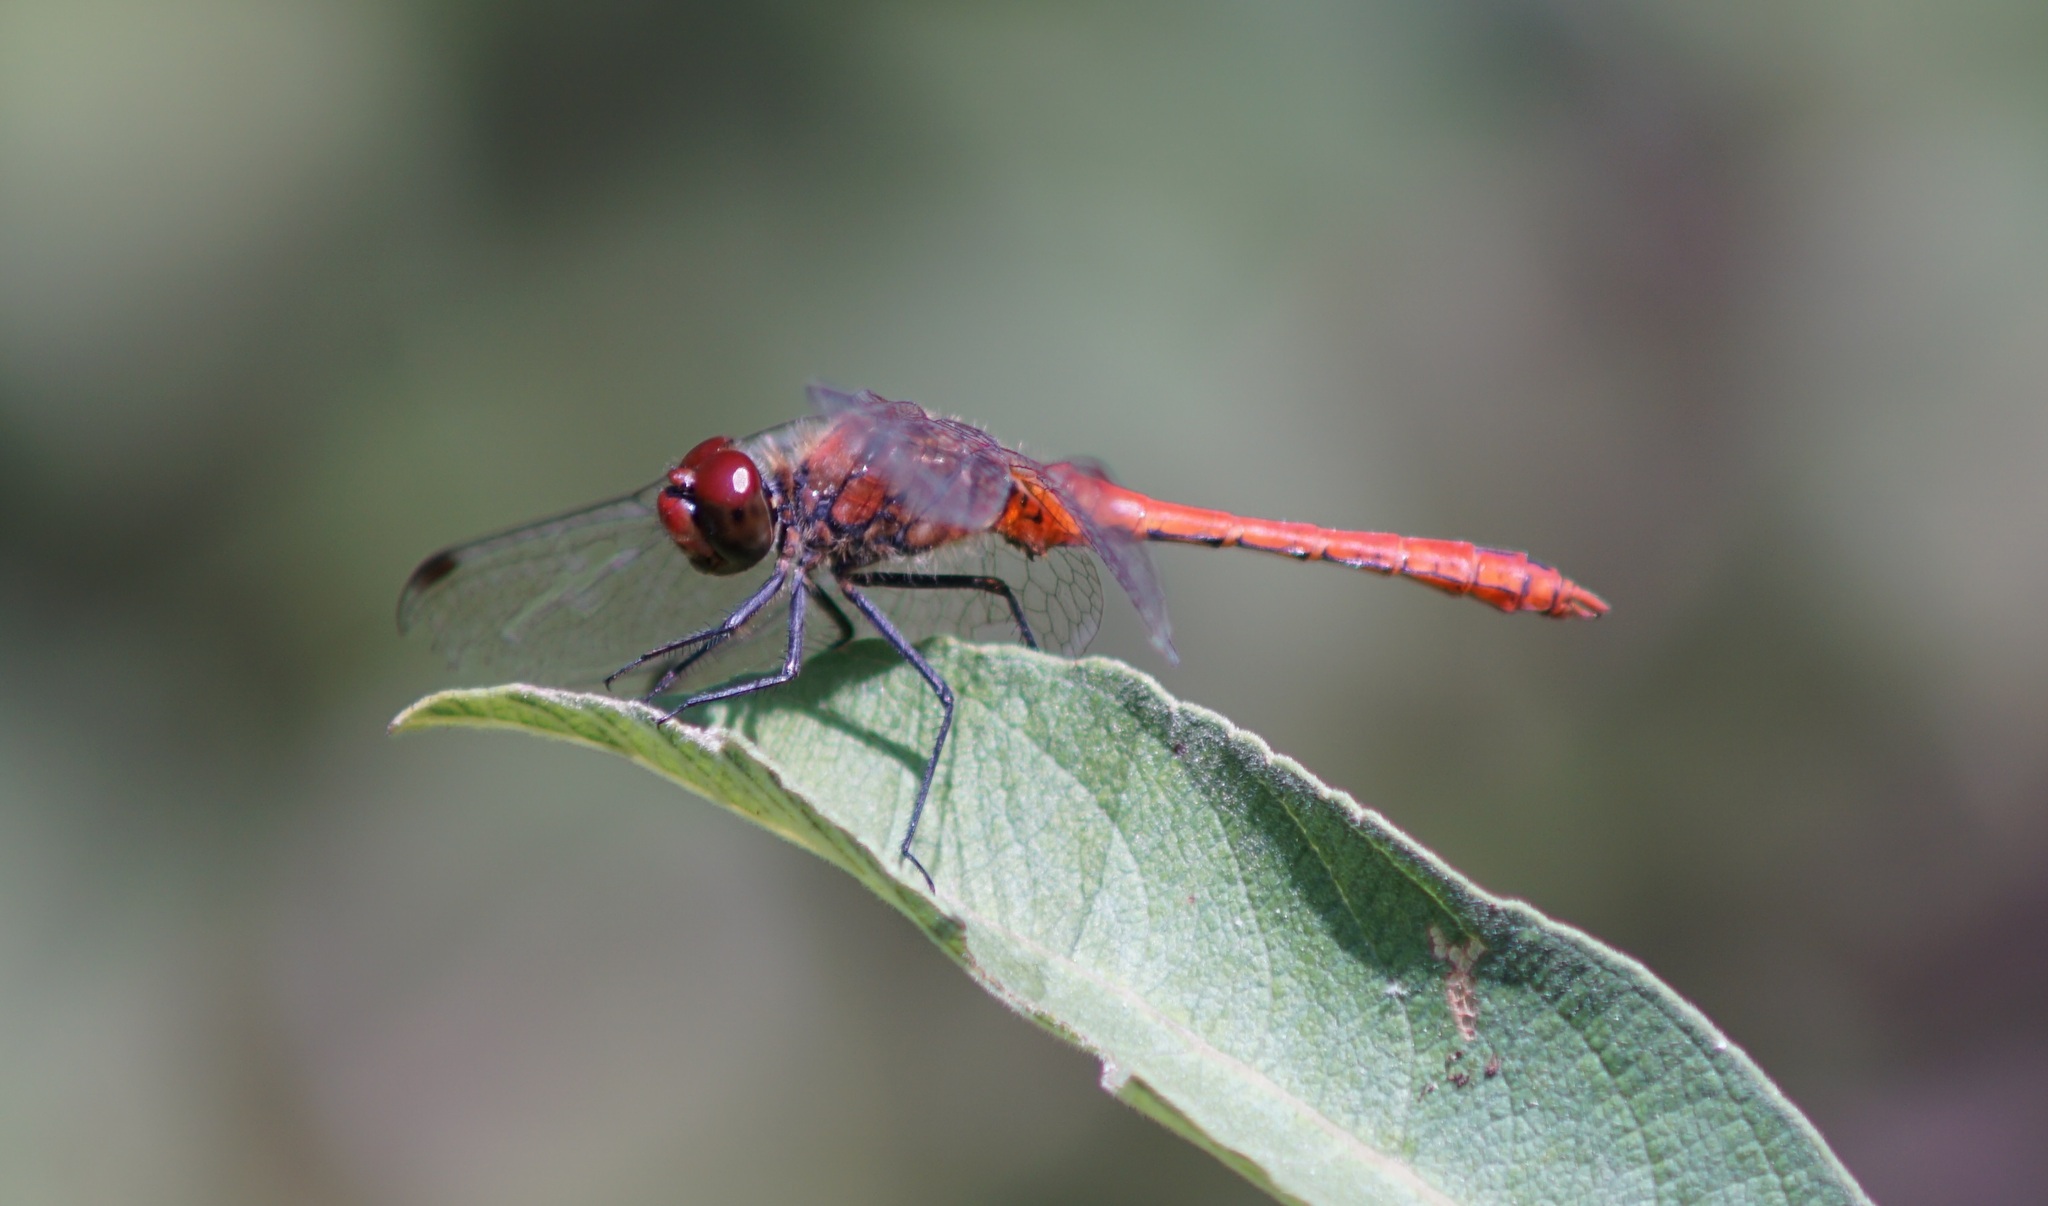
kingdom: Animalia
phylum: Arthropoda
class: Insecta
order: Odonata
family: Libellulidae
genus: Sympetrum
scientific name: Sympetrum sanguineum
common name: Ruddy darter
